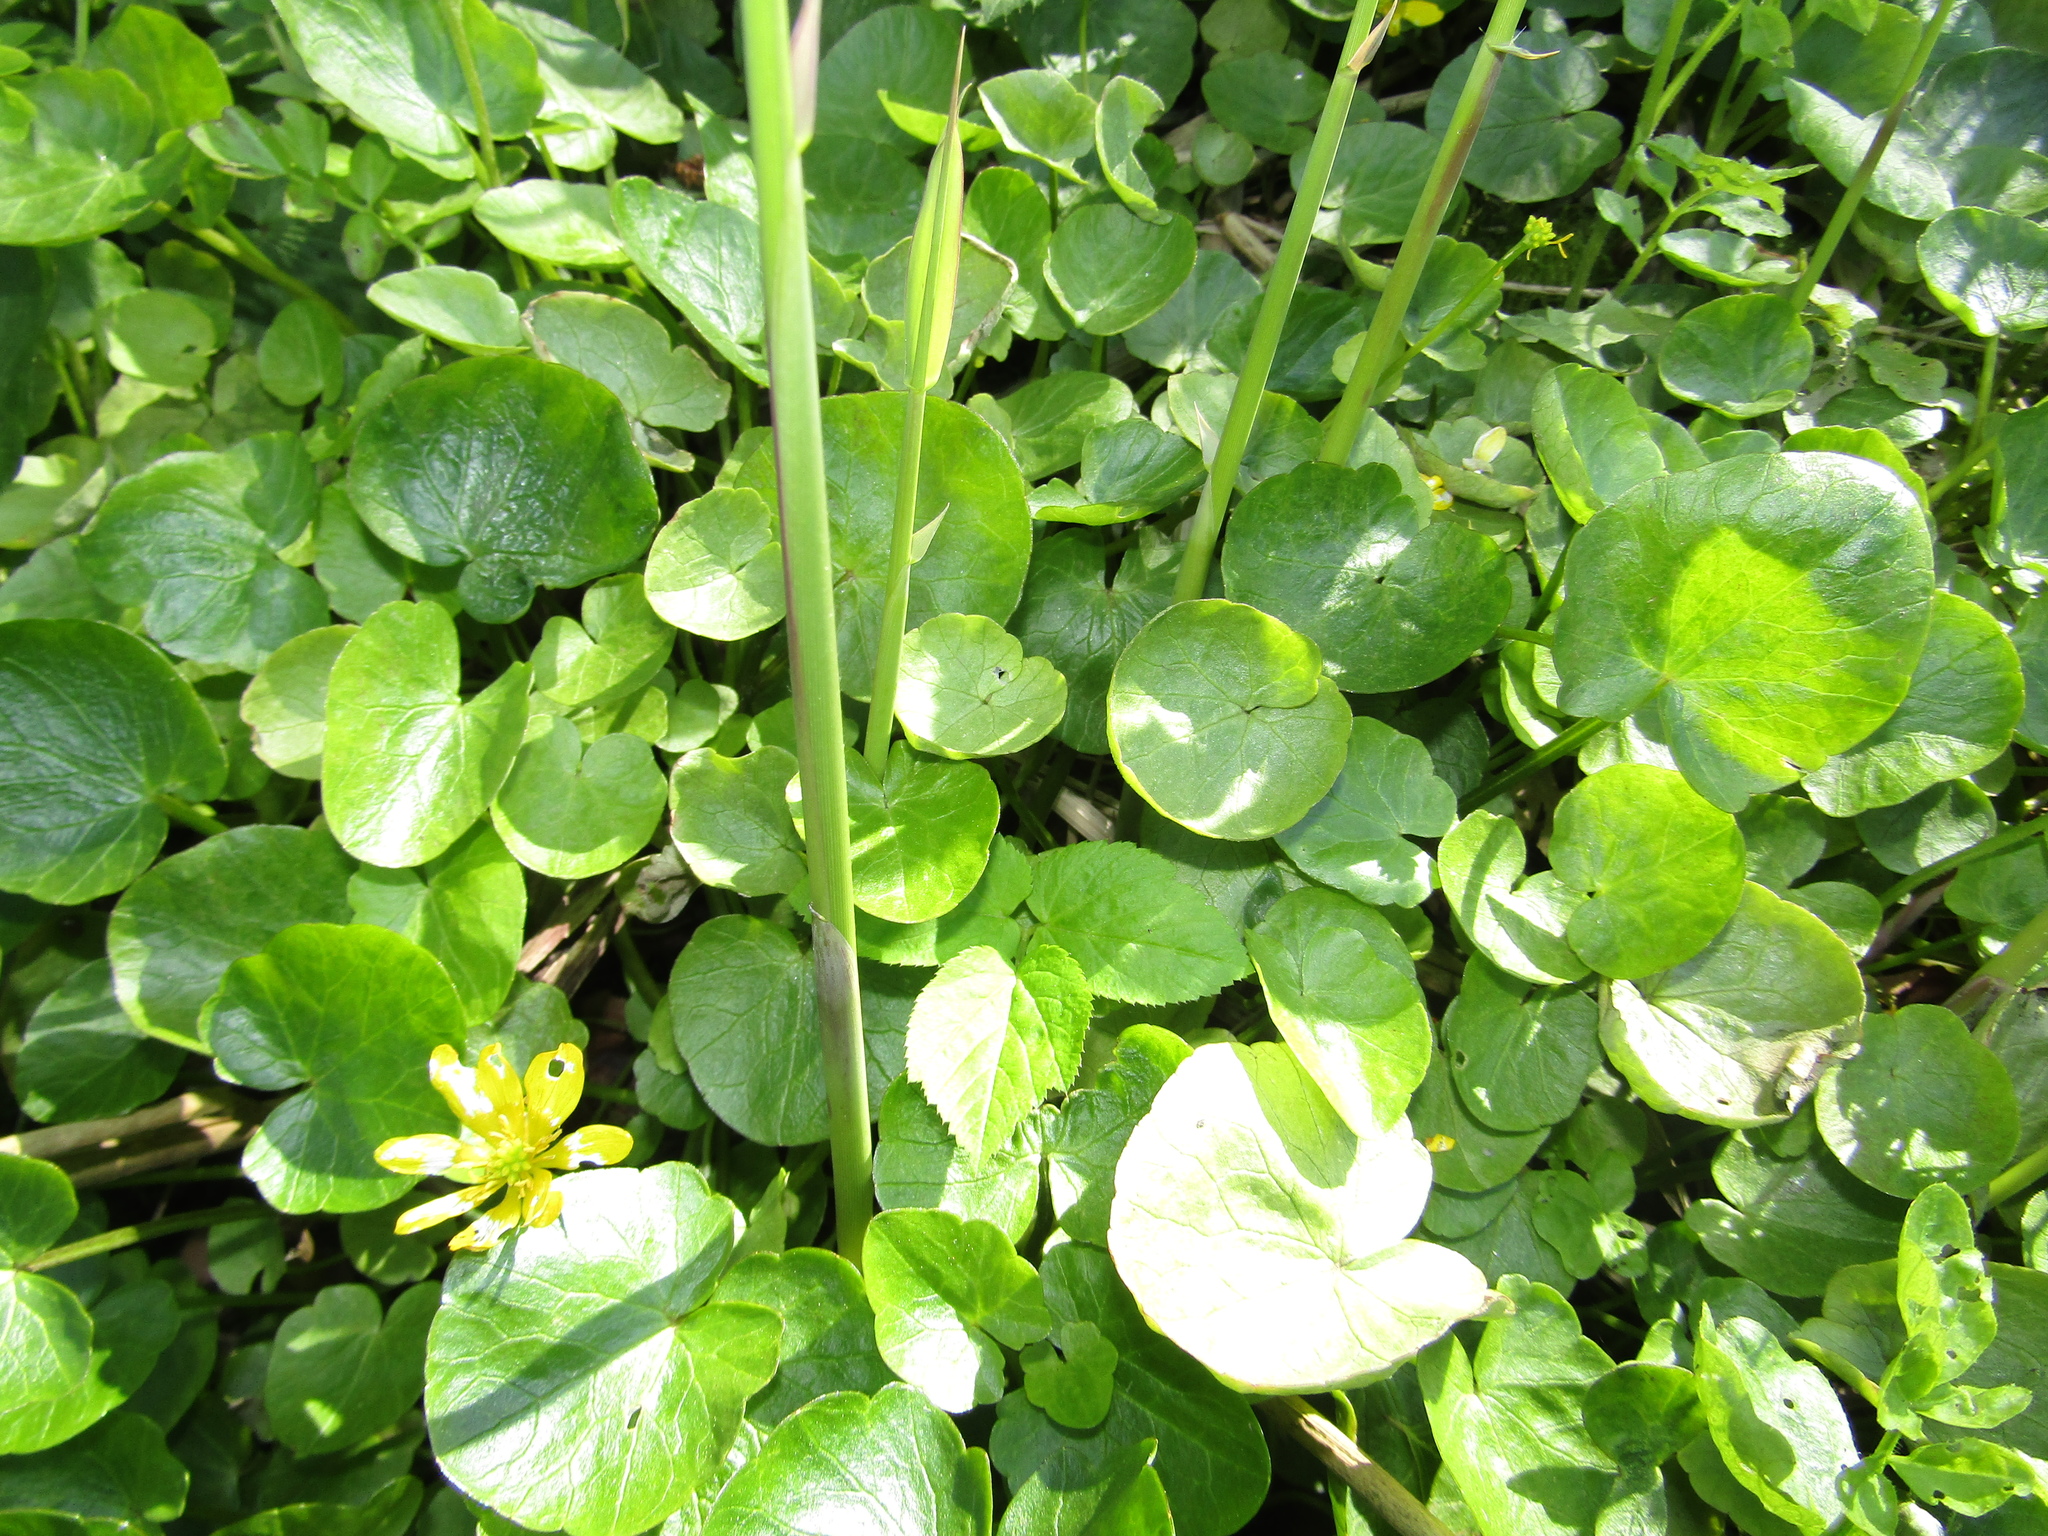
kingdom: Plantae
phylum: Tracheophyta
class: Magnoliopsida
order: Ranunculales
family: Ranunculaceae
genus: Ficaria
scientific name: Ficaria verna
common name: Lesser celandine
